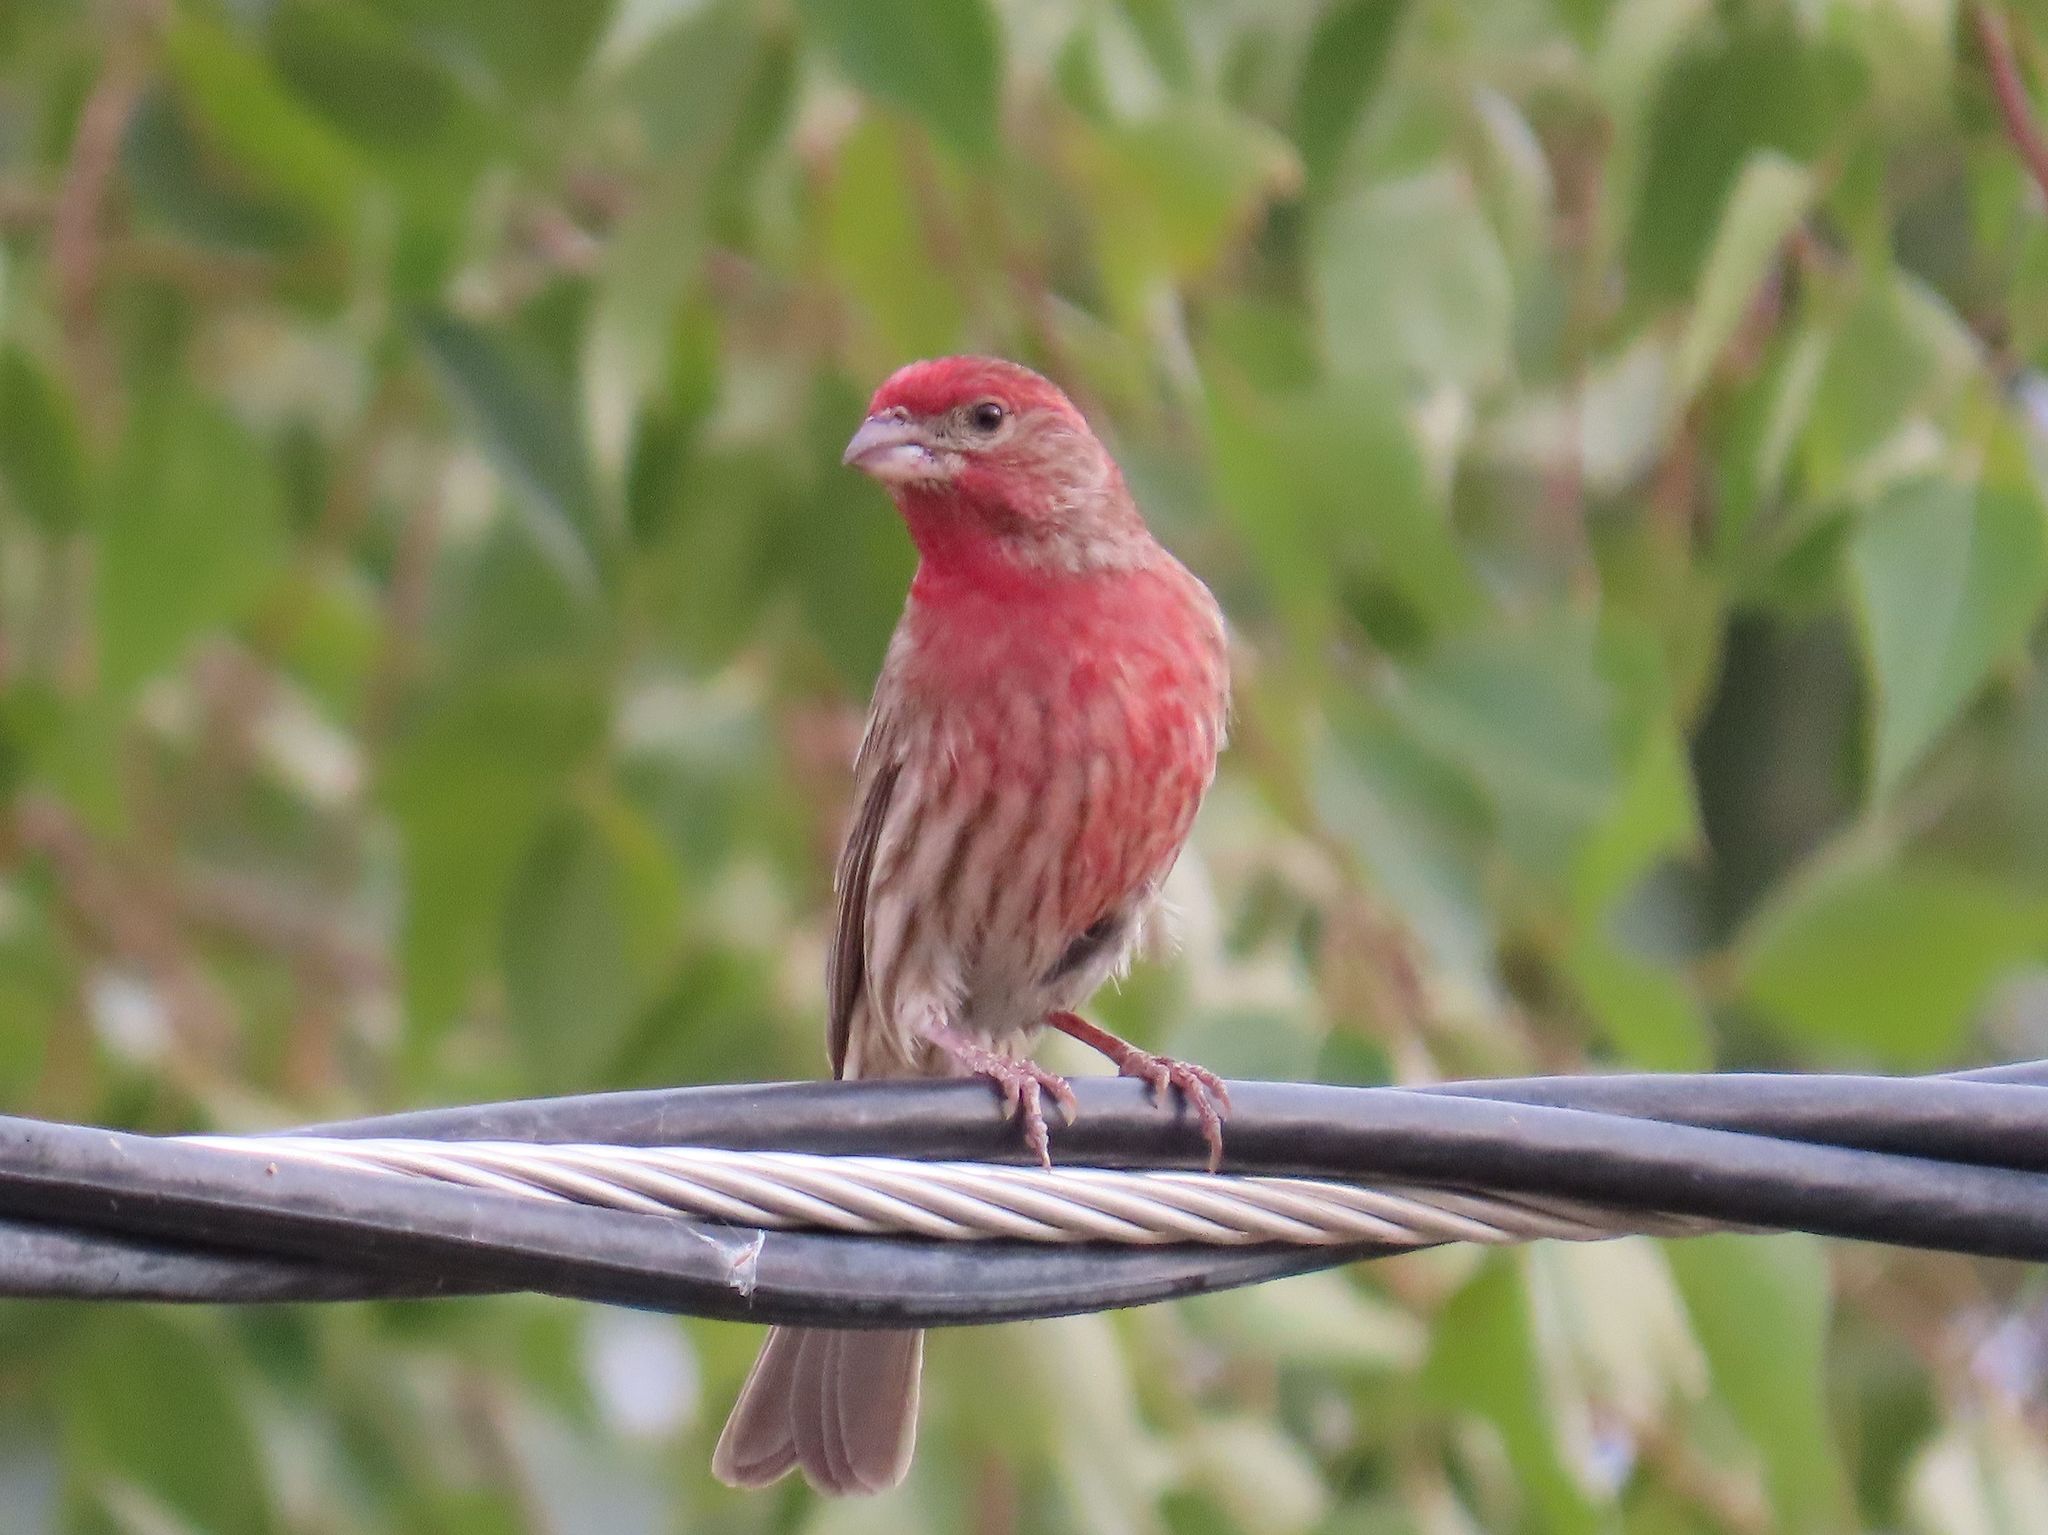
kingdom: Animalia
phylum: Chordata
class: Aves
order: Passeriformes
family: Fringillidae
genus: Haemorhous
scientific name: Haemorhous mexicanus
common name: House finch
